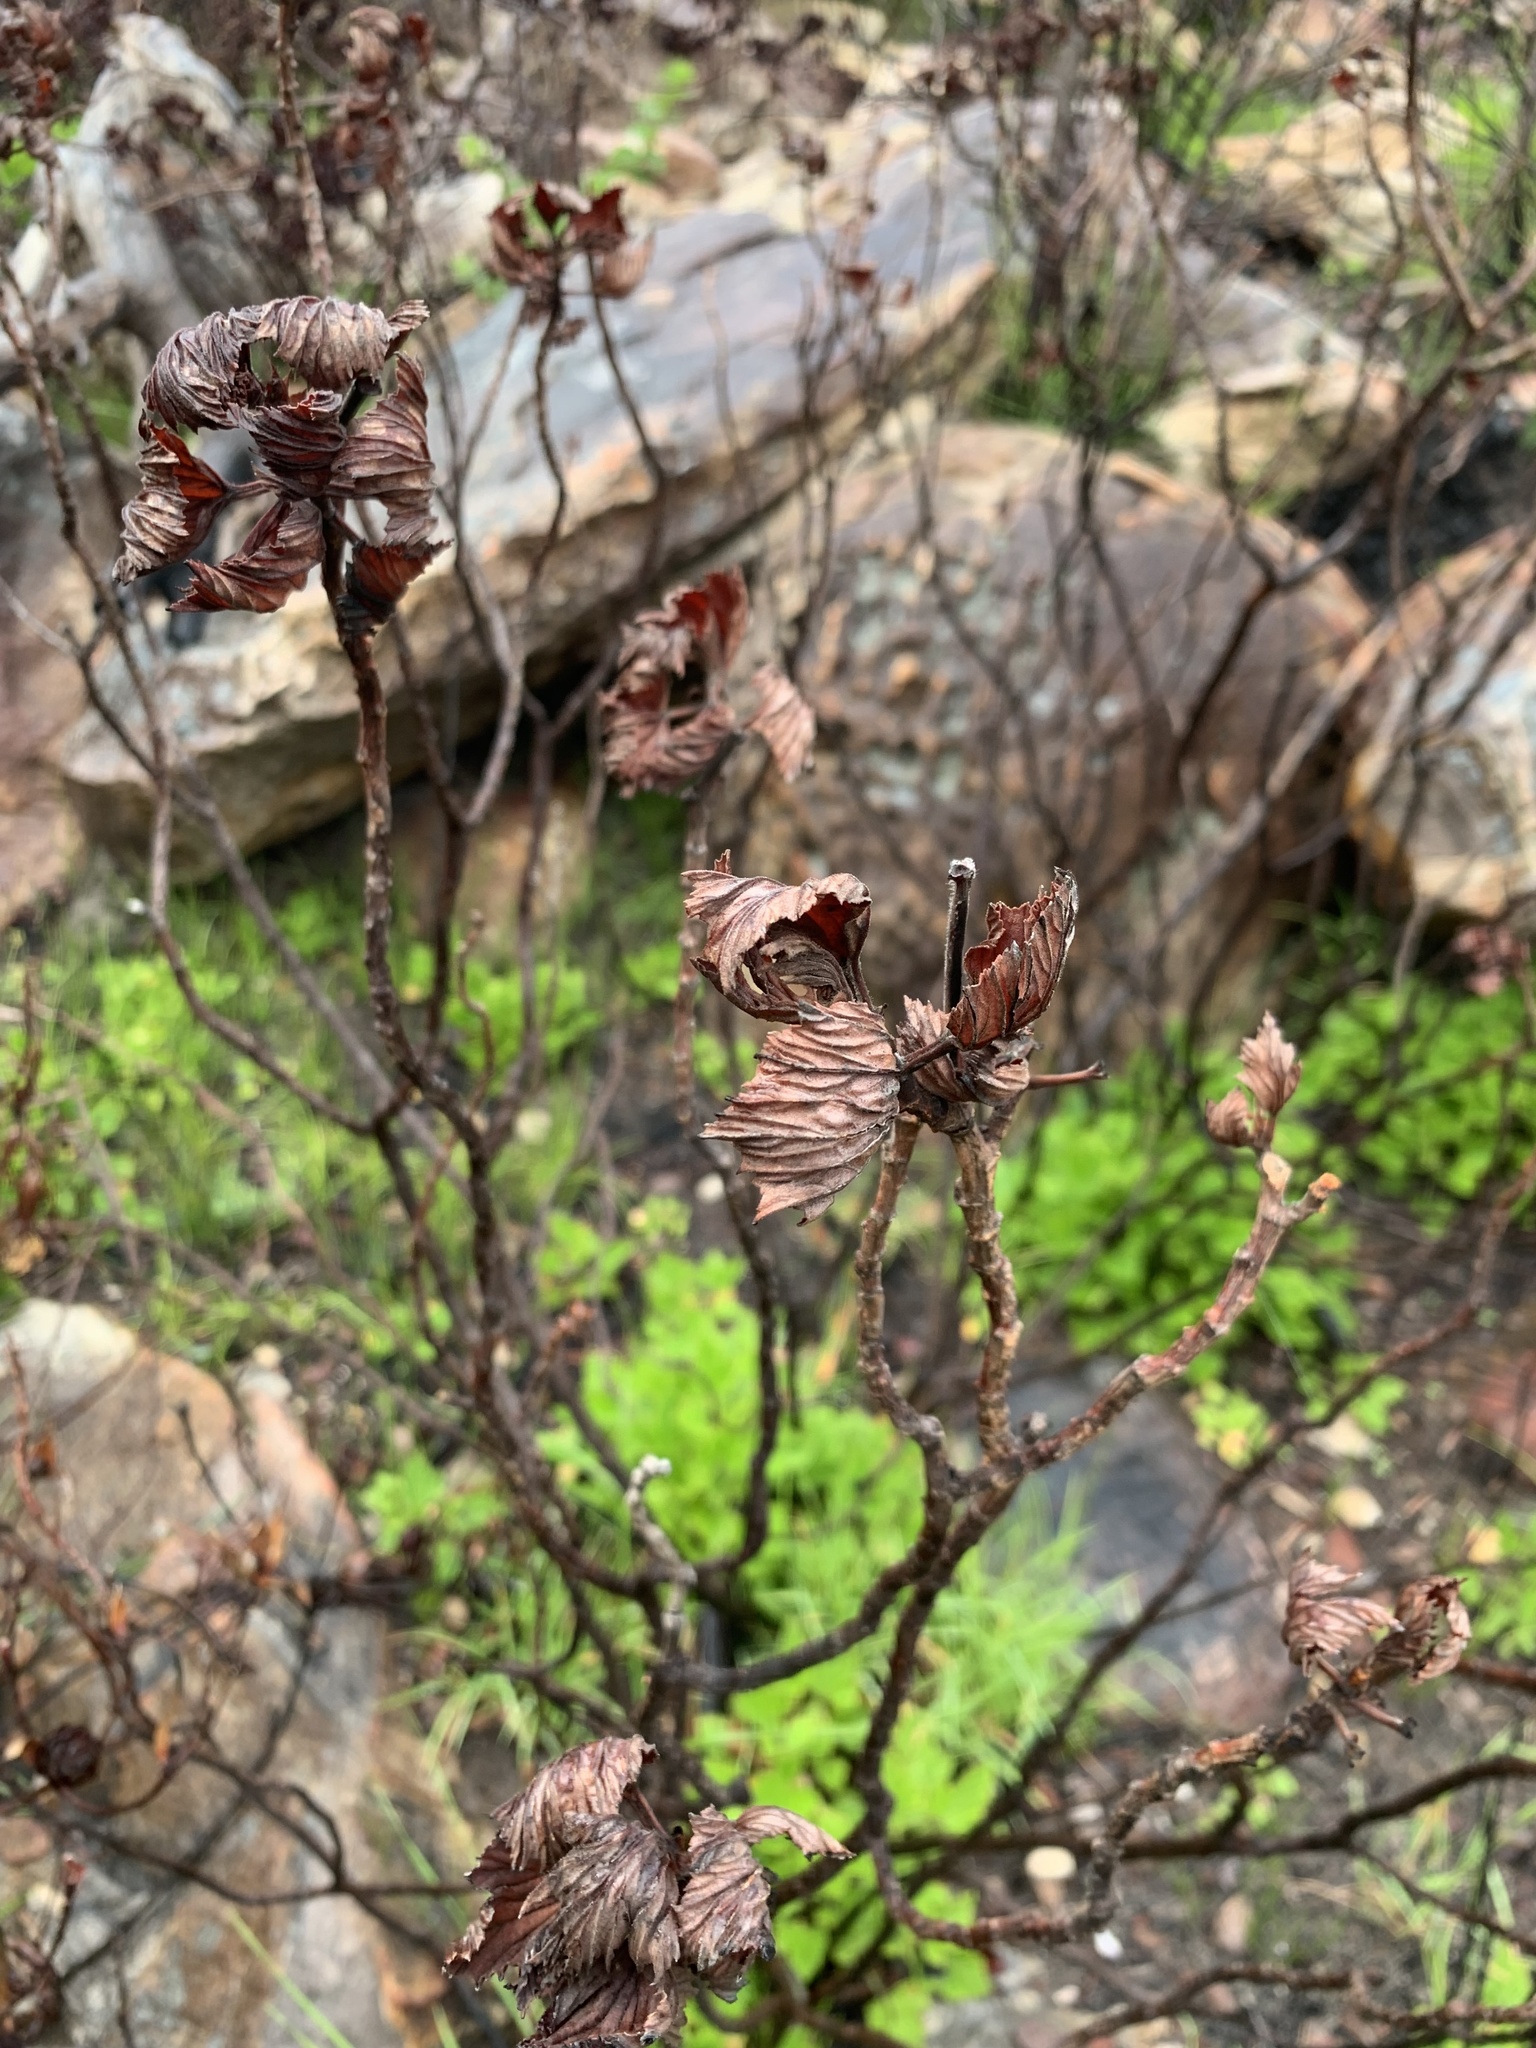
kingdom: Plantae
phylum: Tracheophyta
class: Magnoliopsida
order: Geraniales
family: Geraniaceae
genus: Pelargonium
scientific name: Pelargonium cucullatum
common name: Tree pelargonium
